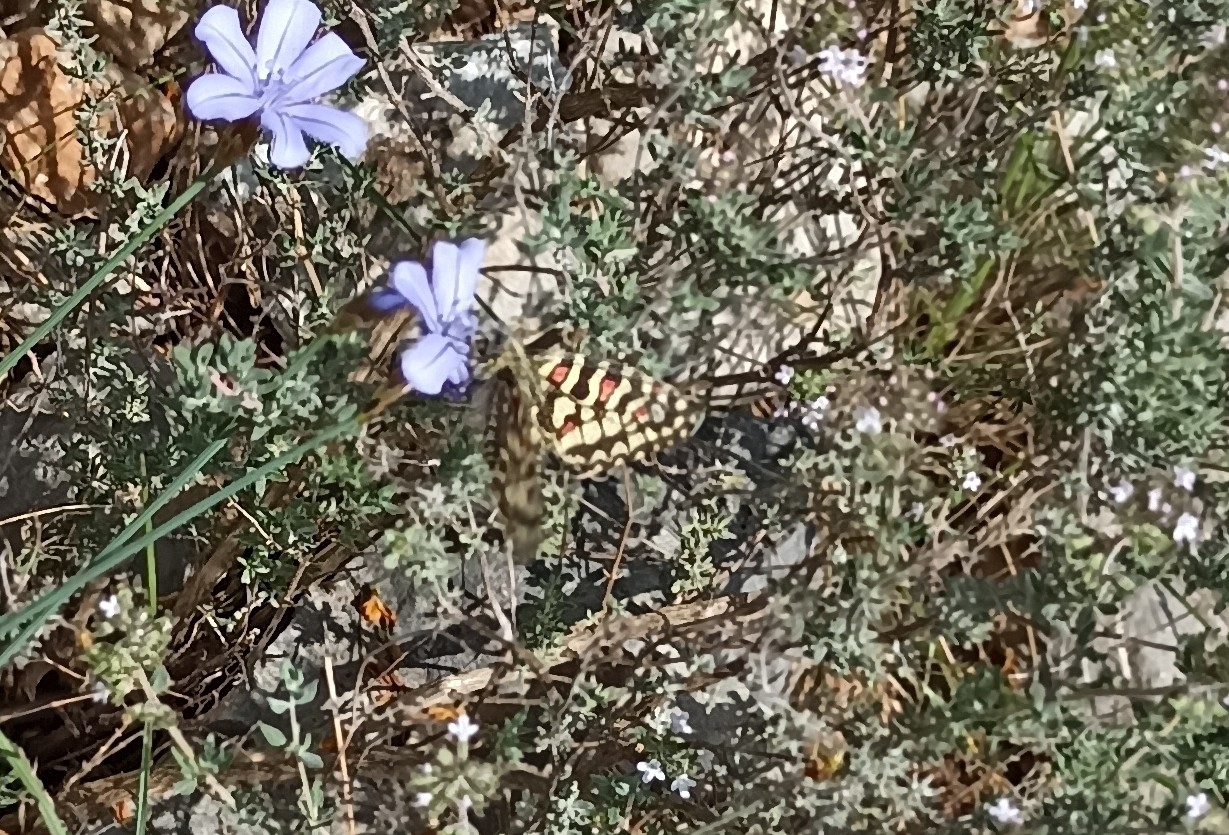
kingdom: Animalia
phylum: Arthropoda
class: Insecta
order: Lepidoptera
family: Papilionidae
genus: Zerynthia
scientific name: Zerynthia rumina
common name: Spanish festoon
